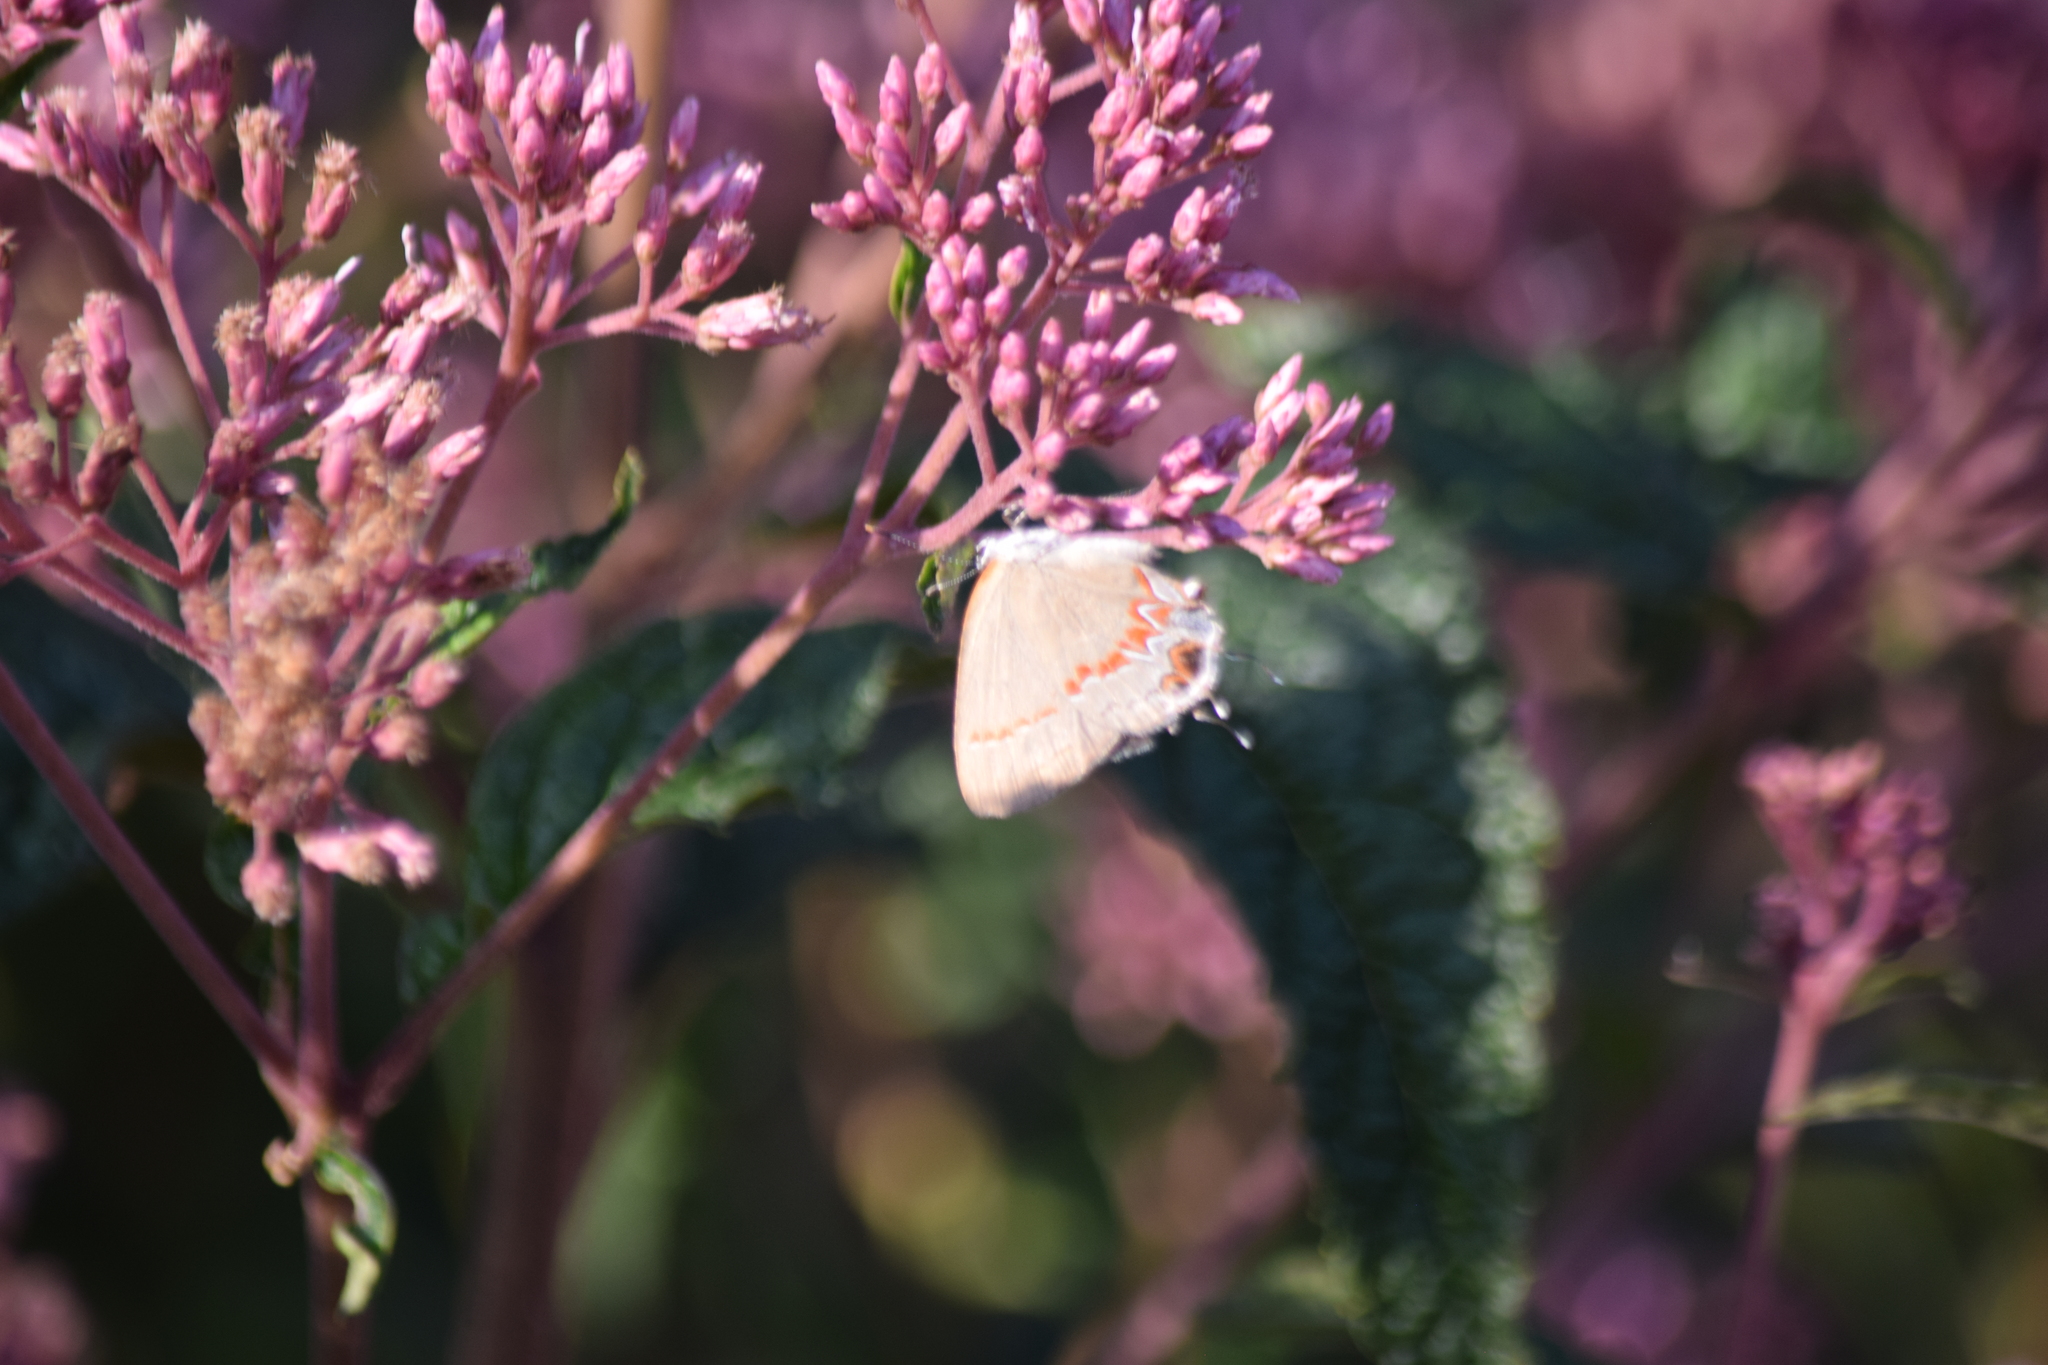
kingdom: Animalia
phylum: Arthropoda
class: Insecta
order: Lepidoptera
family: Lycaenidae
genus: Calycopis
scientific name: Calycopis cecrops
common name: Red-banded hairstreak
